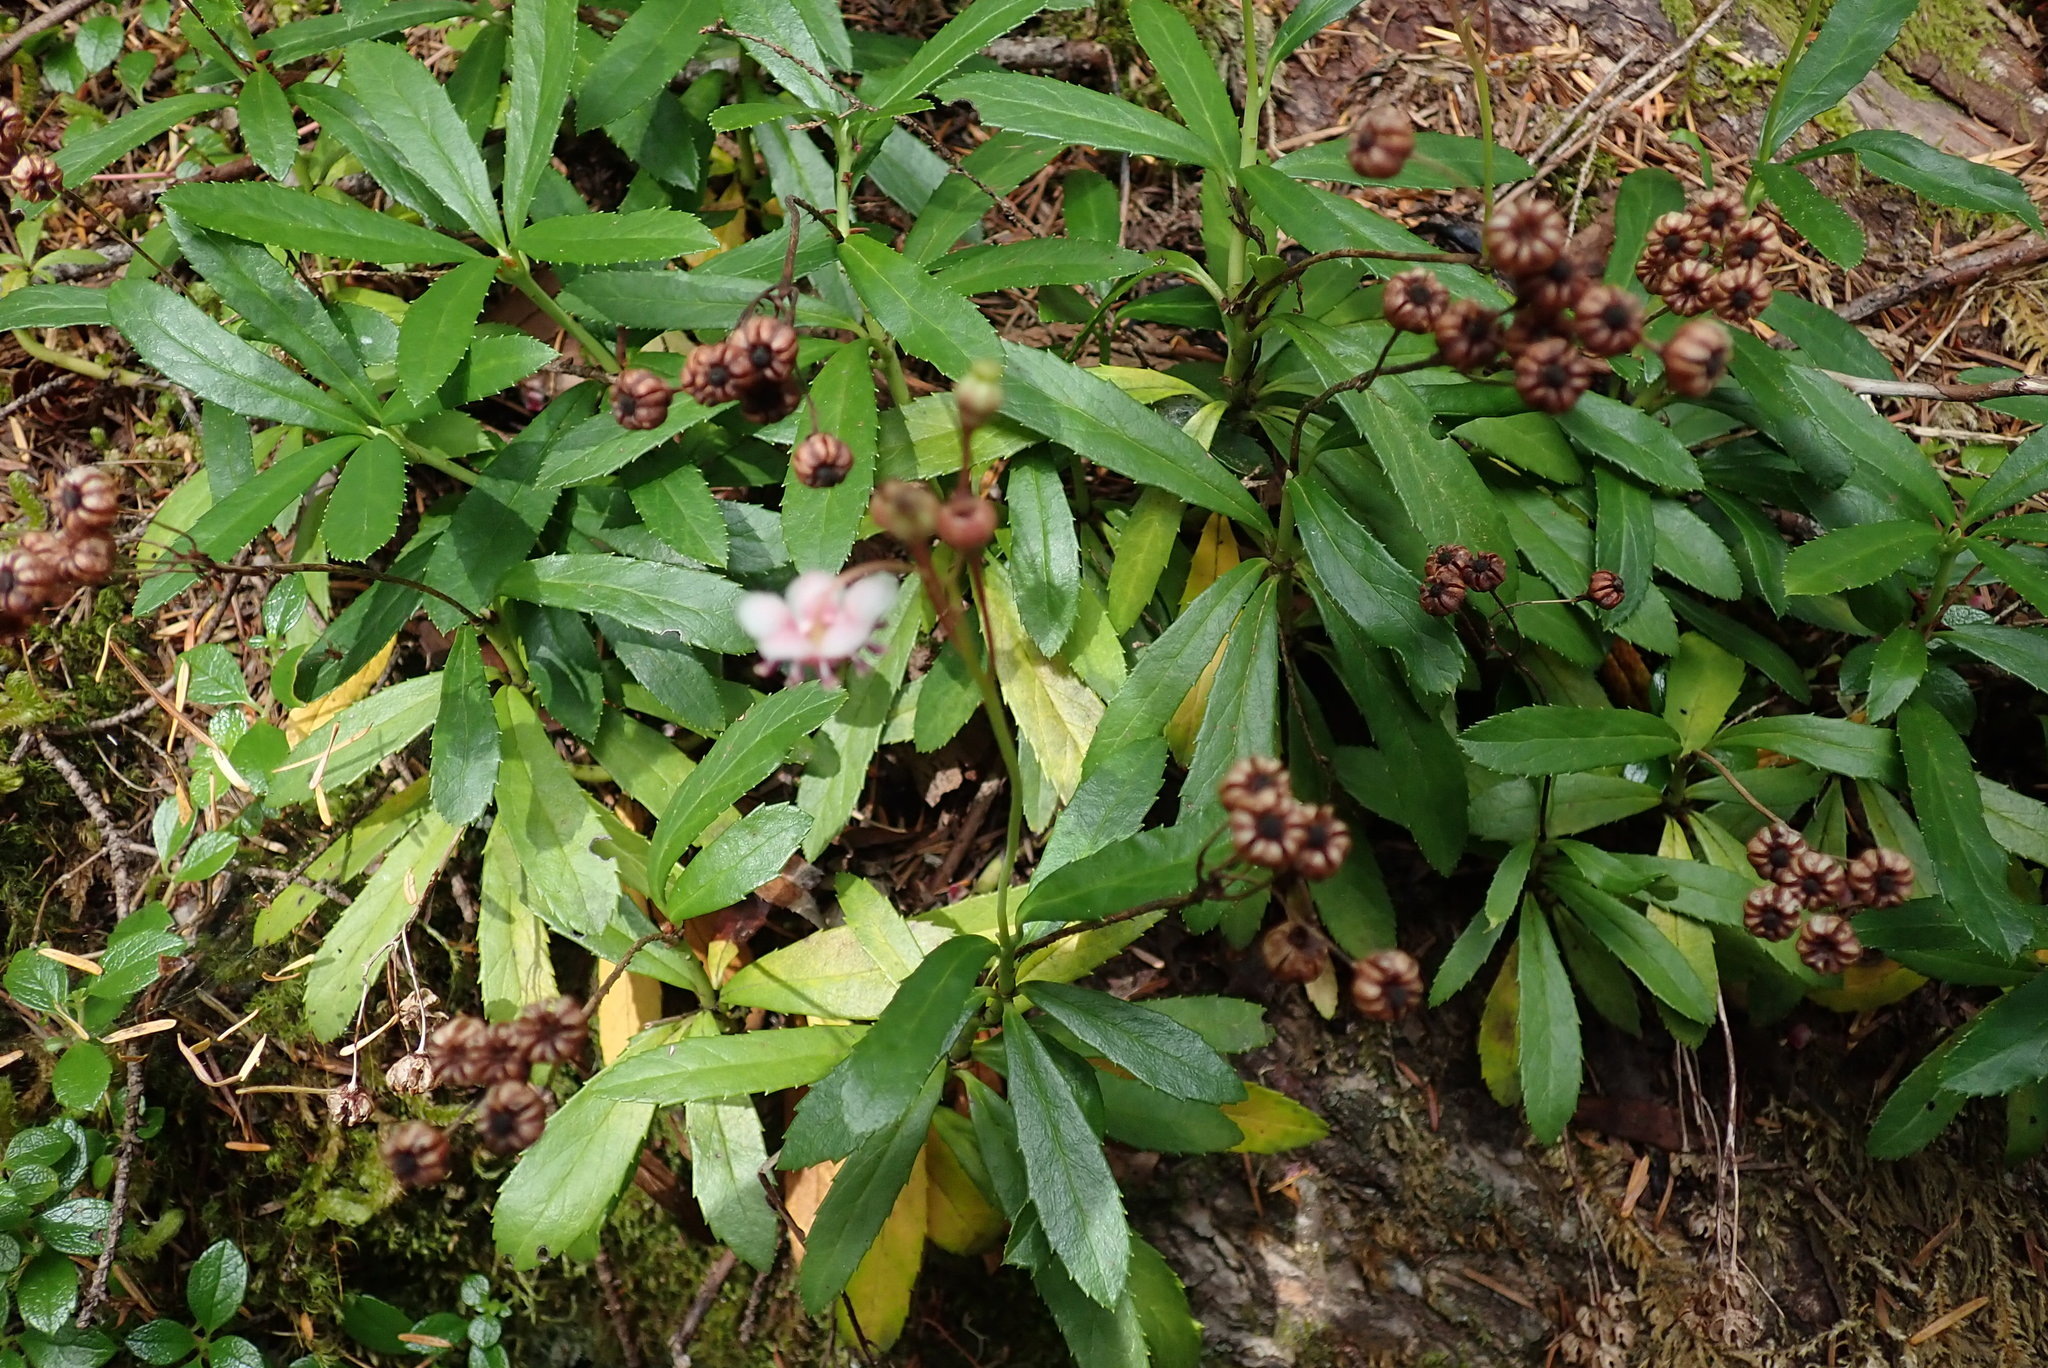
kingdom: Plantae
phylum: Tracheophyta
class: Magnoliopsida
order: Ericales
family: Ericaceae
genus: Chimaphila
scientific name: Chimaphila umbellata
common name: Pipsissewa
